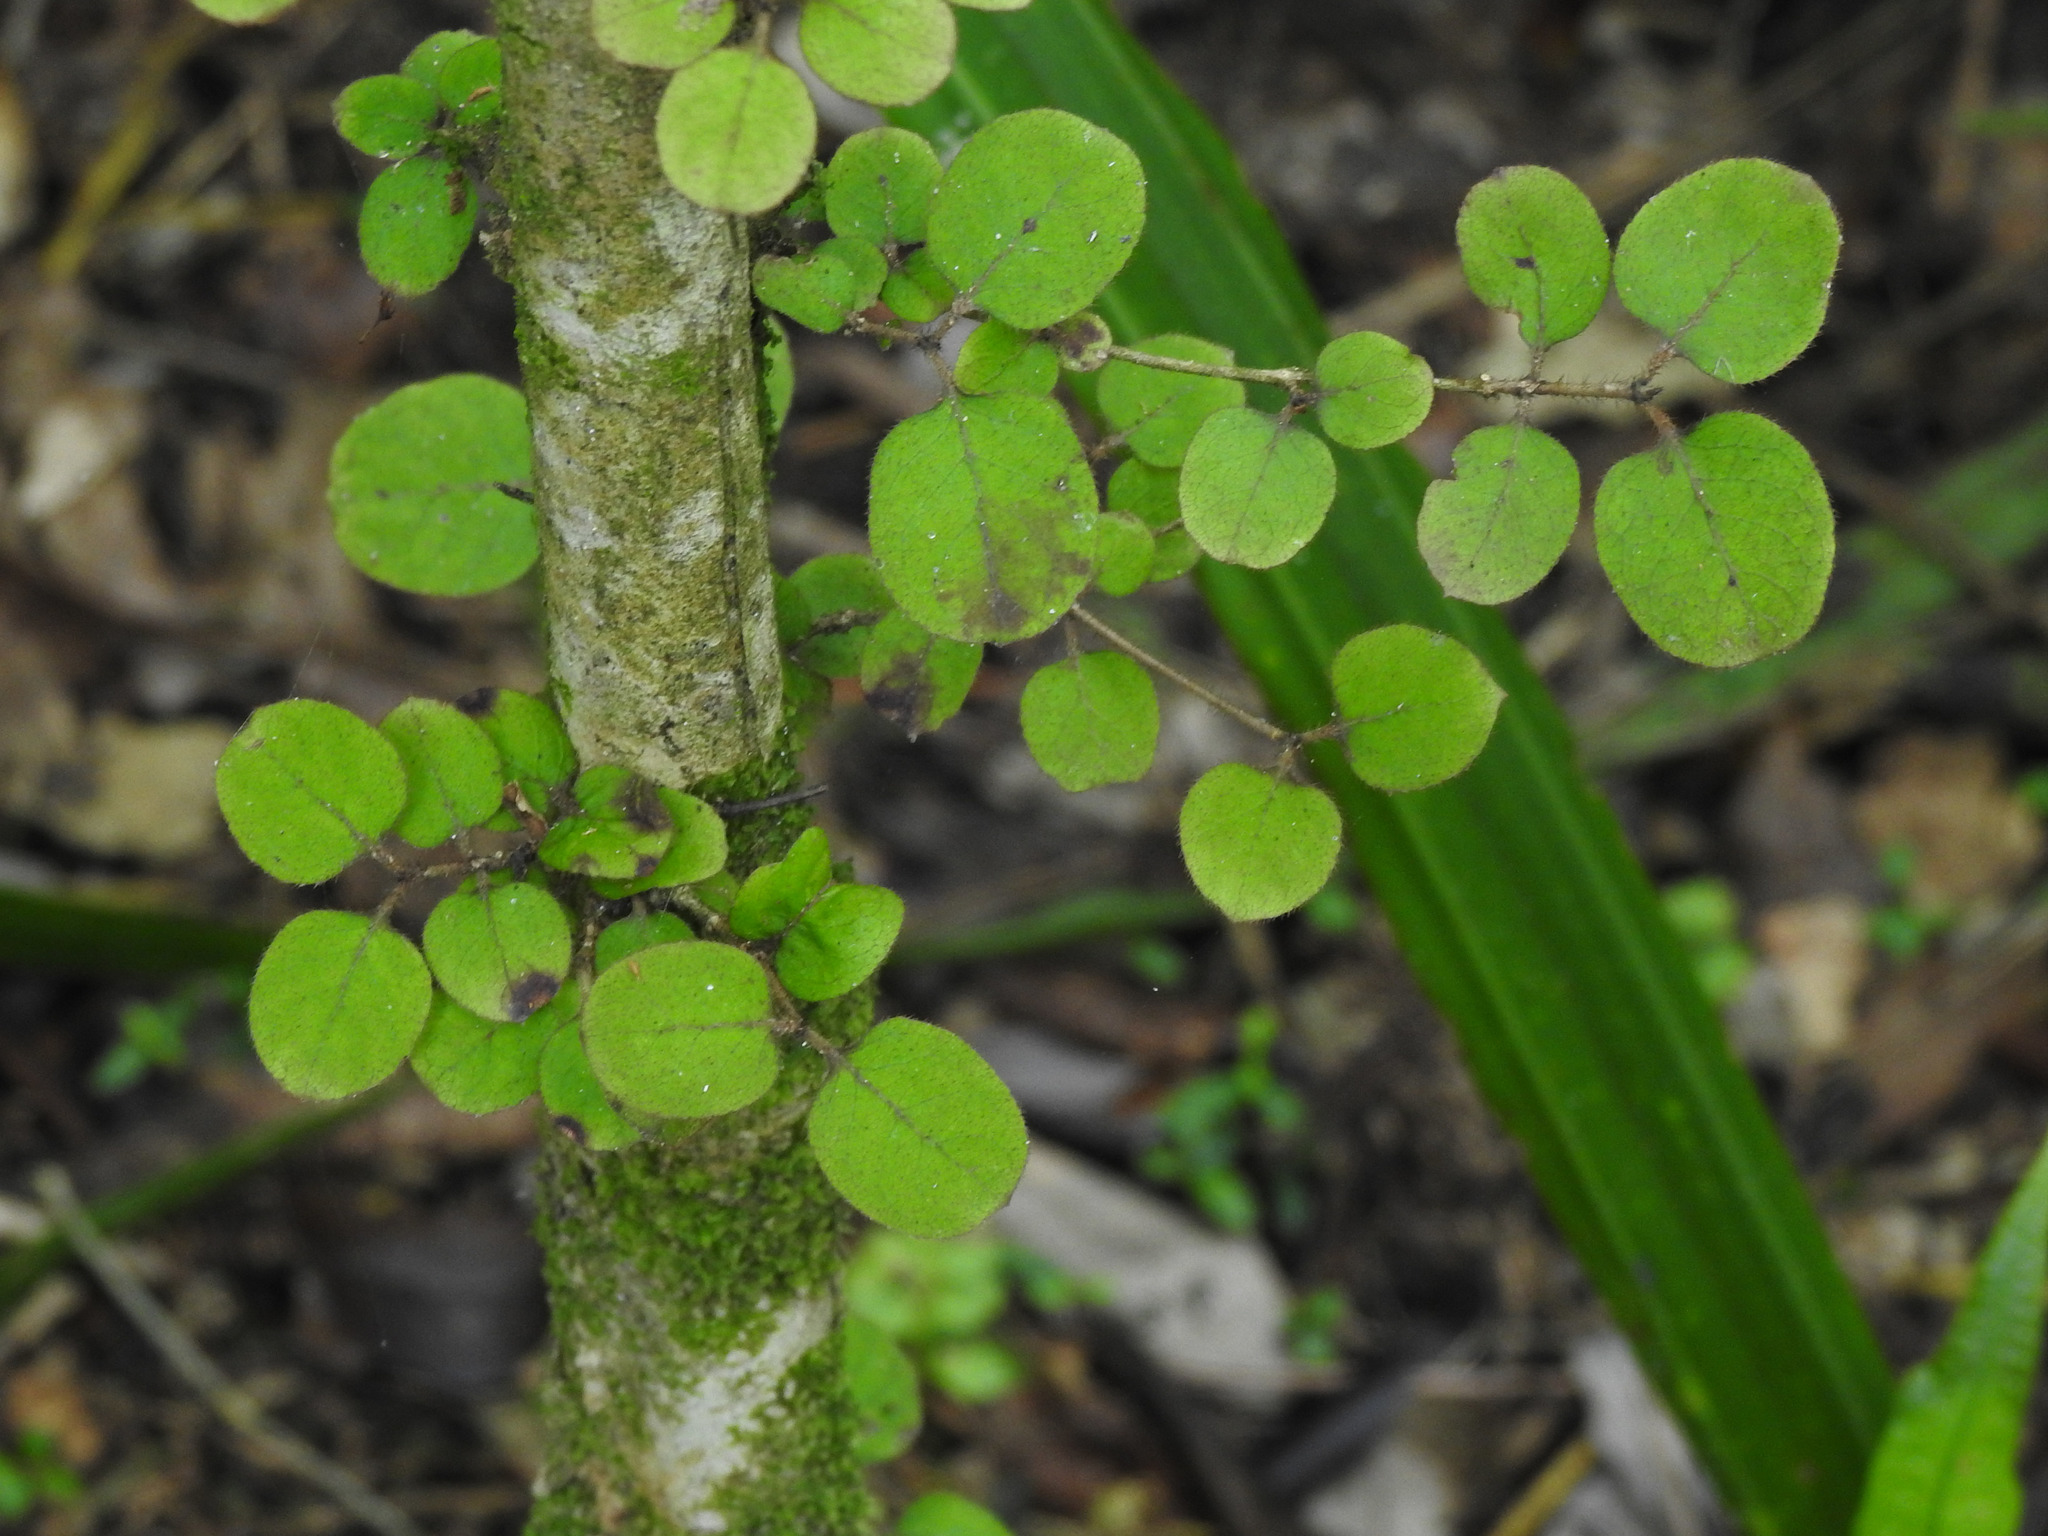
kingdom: Plantae
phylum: Tracheophyta
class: Magnoliopsida
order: Gentianales
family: Rubiaceae
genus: Coprosma
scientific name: Coprosma rotundifolia
